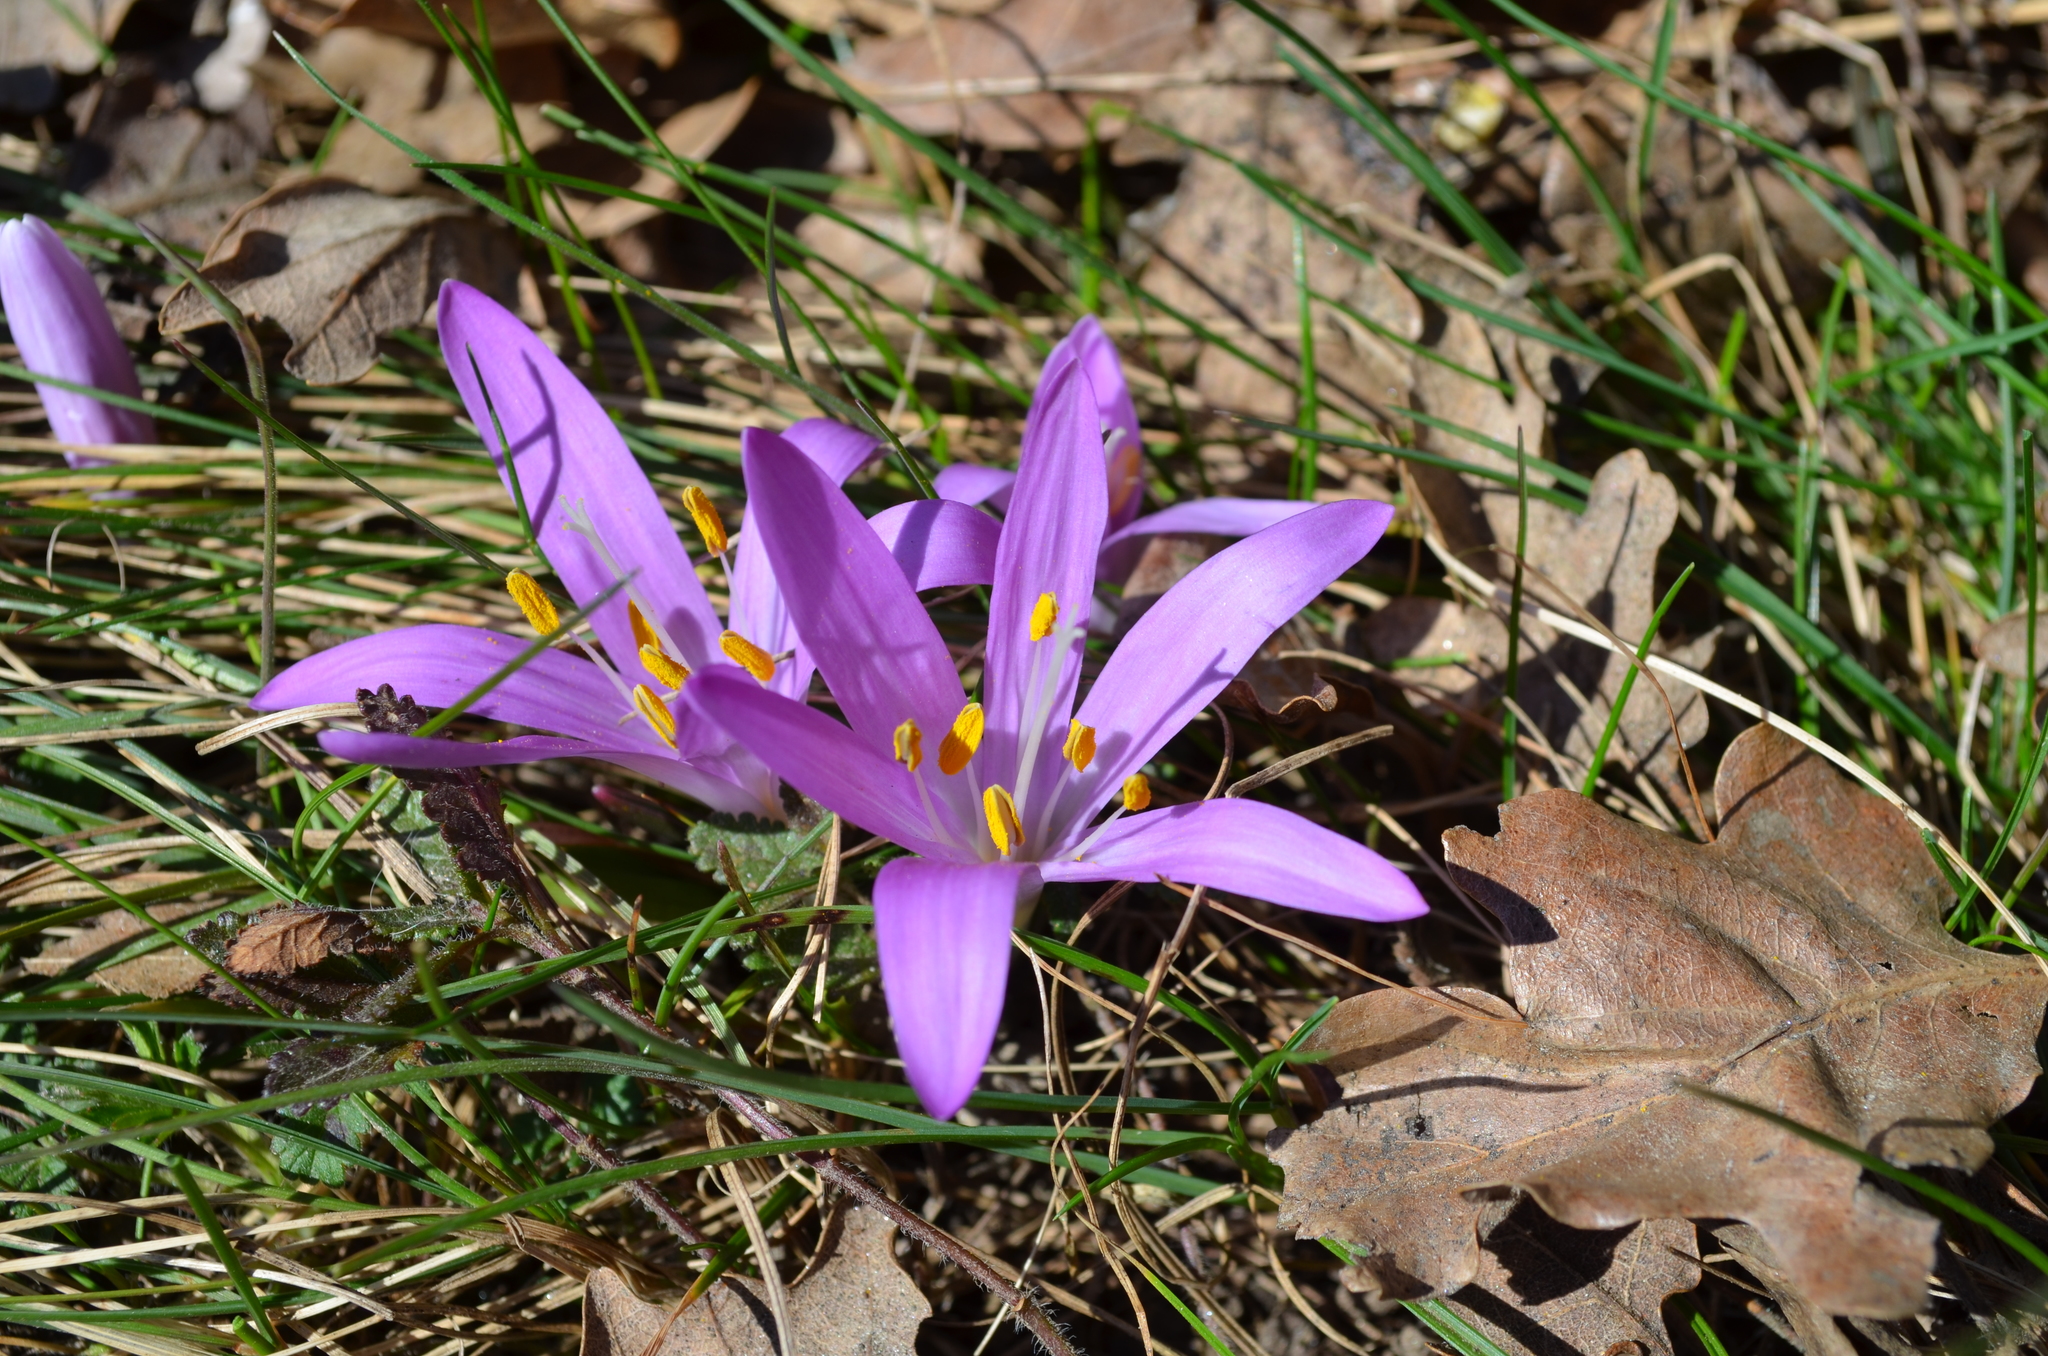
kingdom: Plantae
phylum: Tracheophyta
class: Liliopsida
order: Liliales
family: Colchicaceae
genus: Colchicum
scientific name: Colchicum bulbocodium
